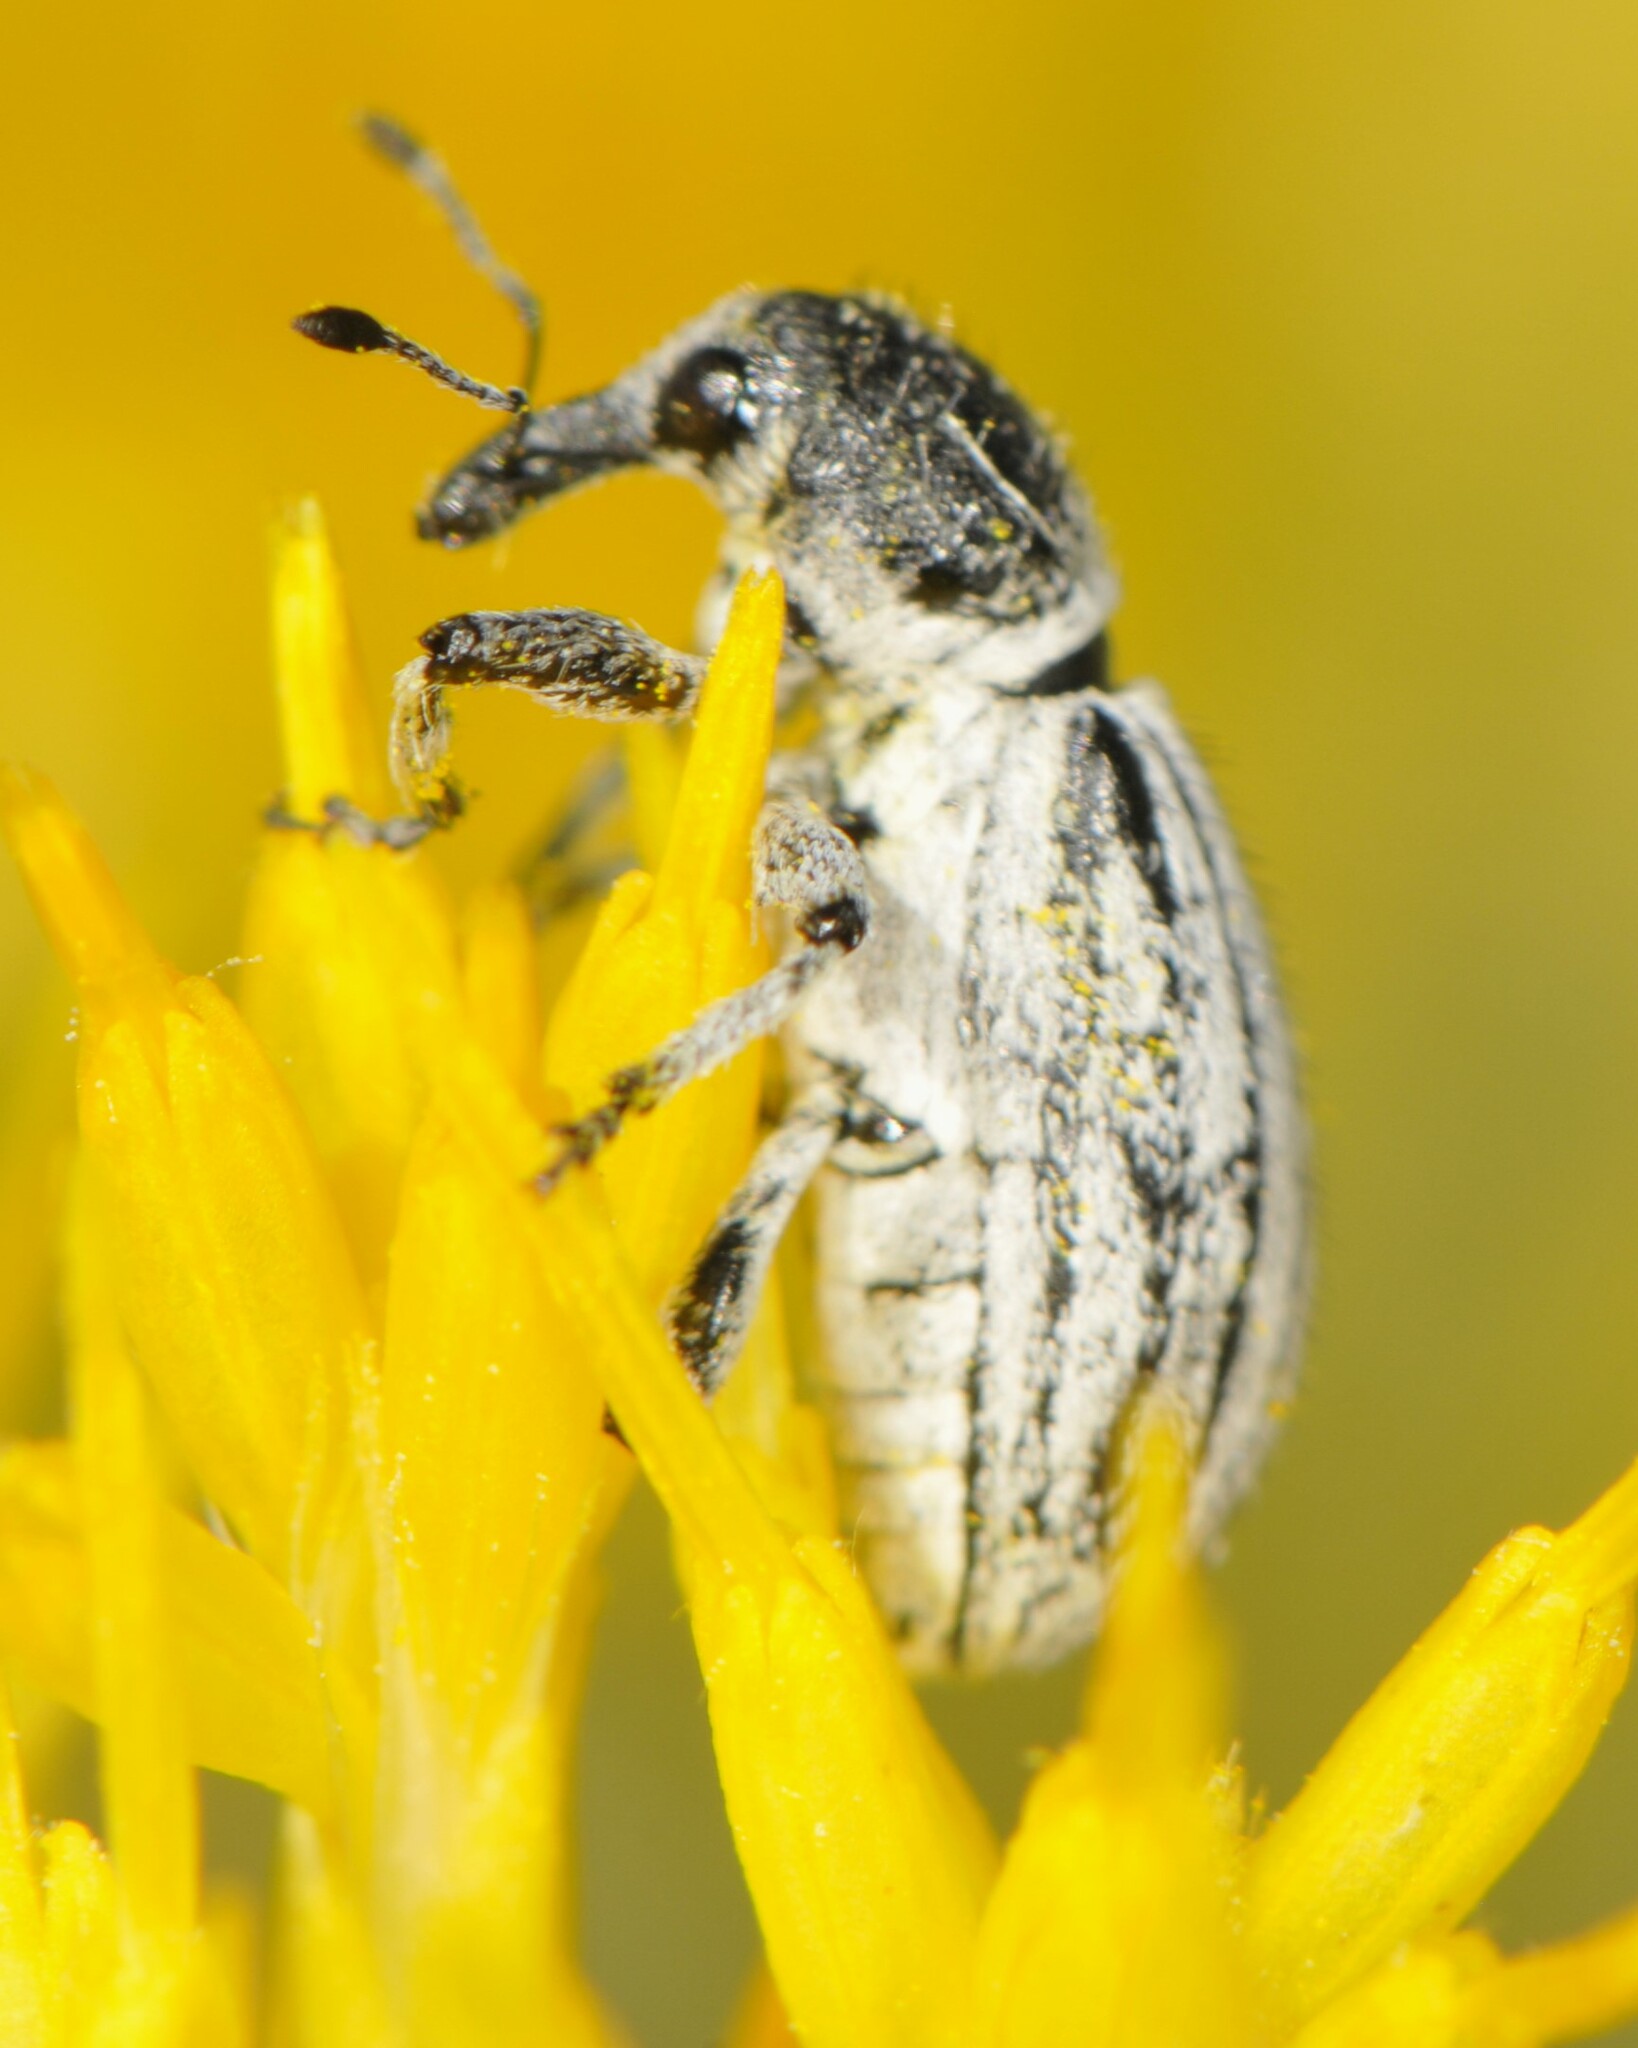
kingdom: Animalia
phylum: Arthropoda
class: Insecta
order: Coleoptera
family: Curculionidae
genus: Myrmex
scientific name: Myrmex lineatus
